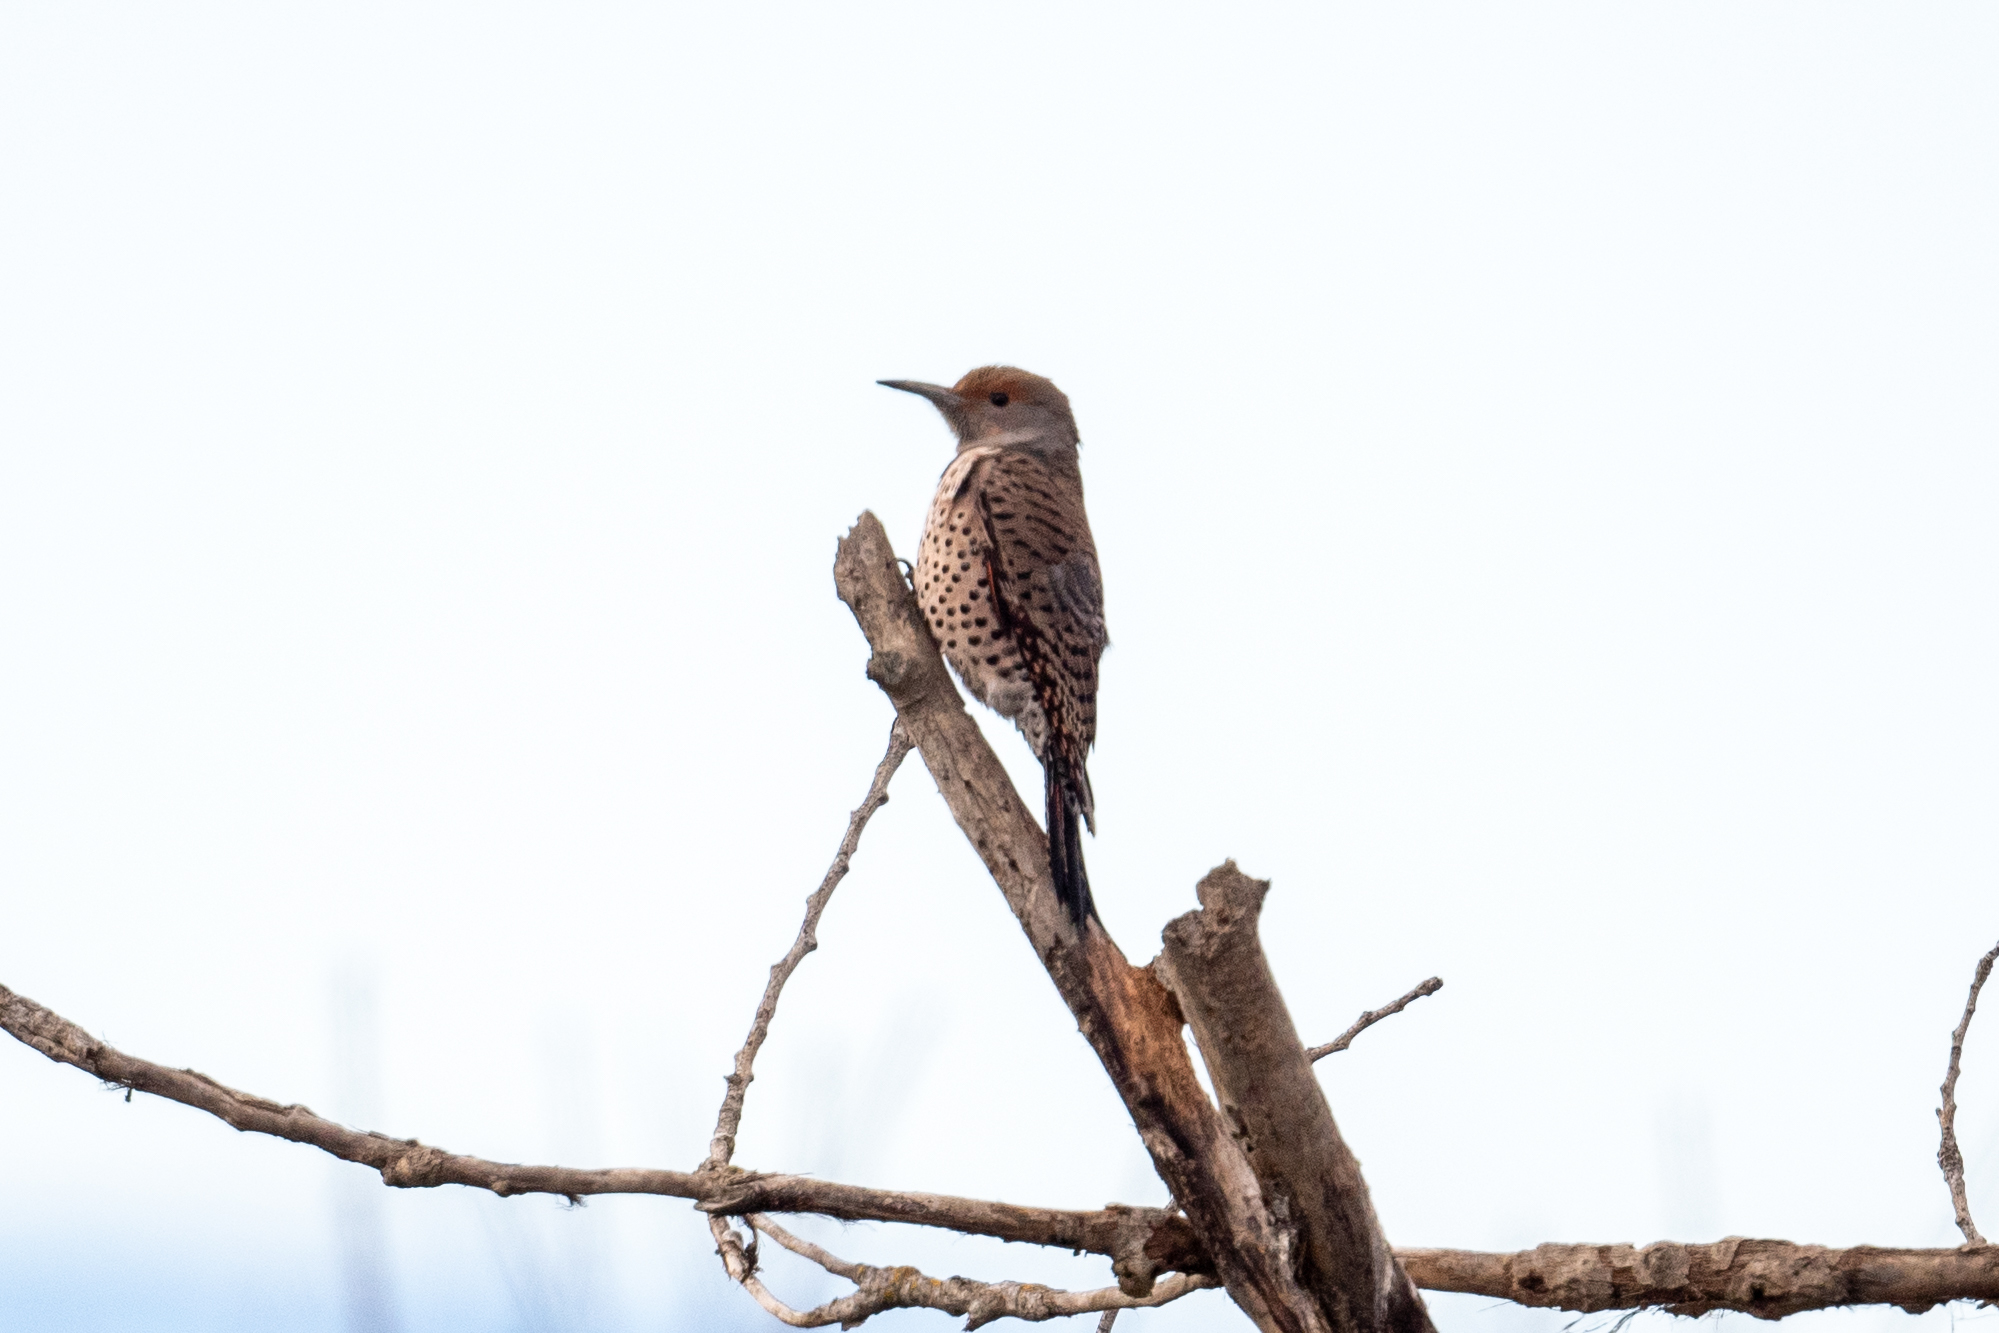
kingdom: Animalia
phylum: Chordata
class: Aves
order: Piciformes
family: Picidae
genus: Colaptes
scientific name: Colaptes auratus
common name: Northern flicker
